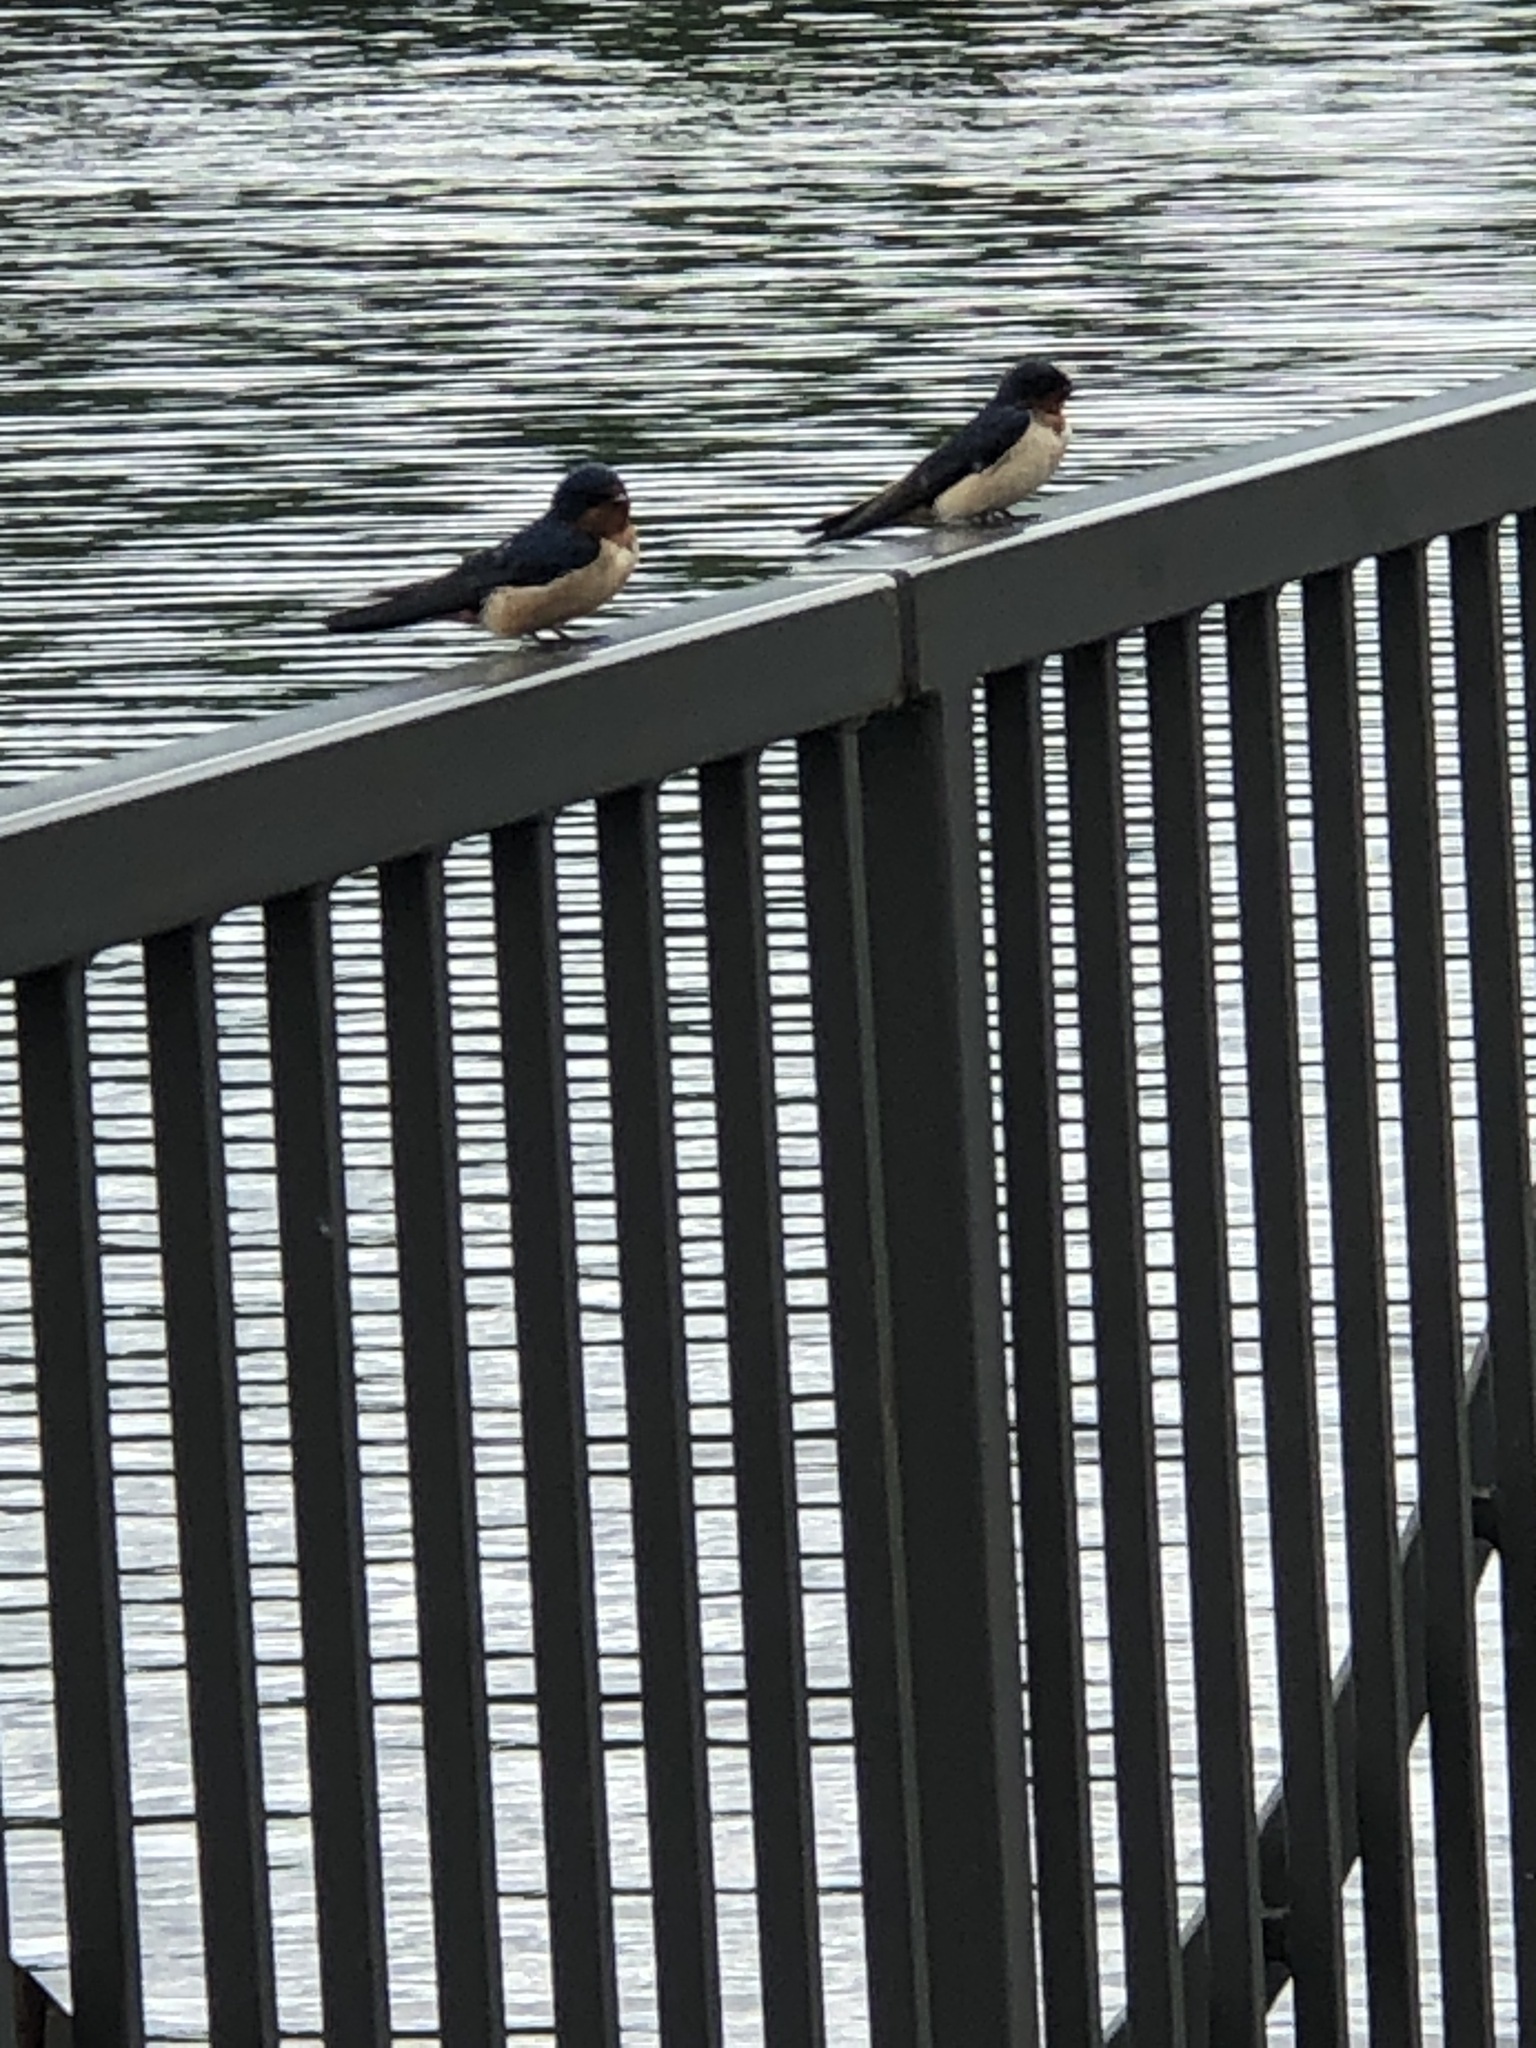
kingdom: Animalia
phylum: Chordata
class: Aves
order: Passeriformes
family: Hirundinidae
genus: Hirundo
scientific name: Hirundo rustica
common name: Barn swallow
